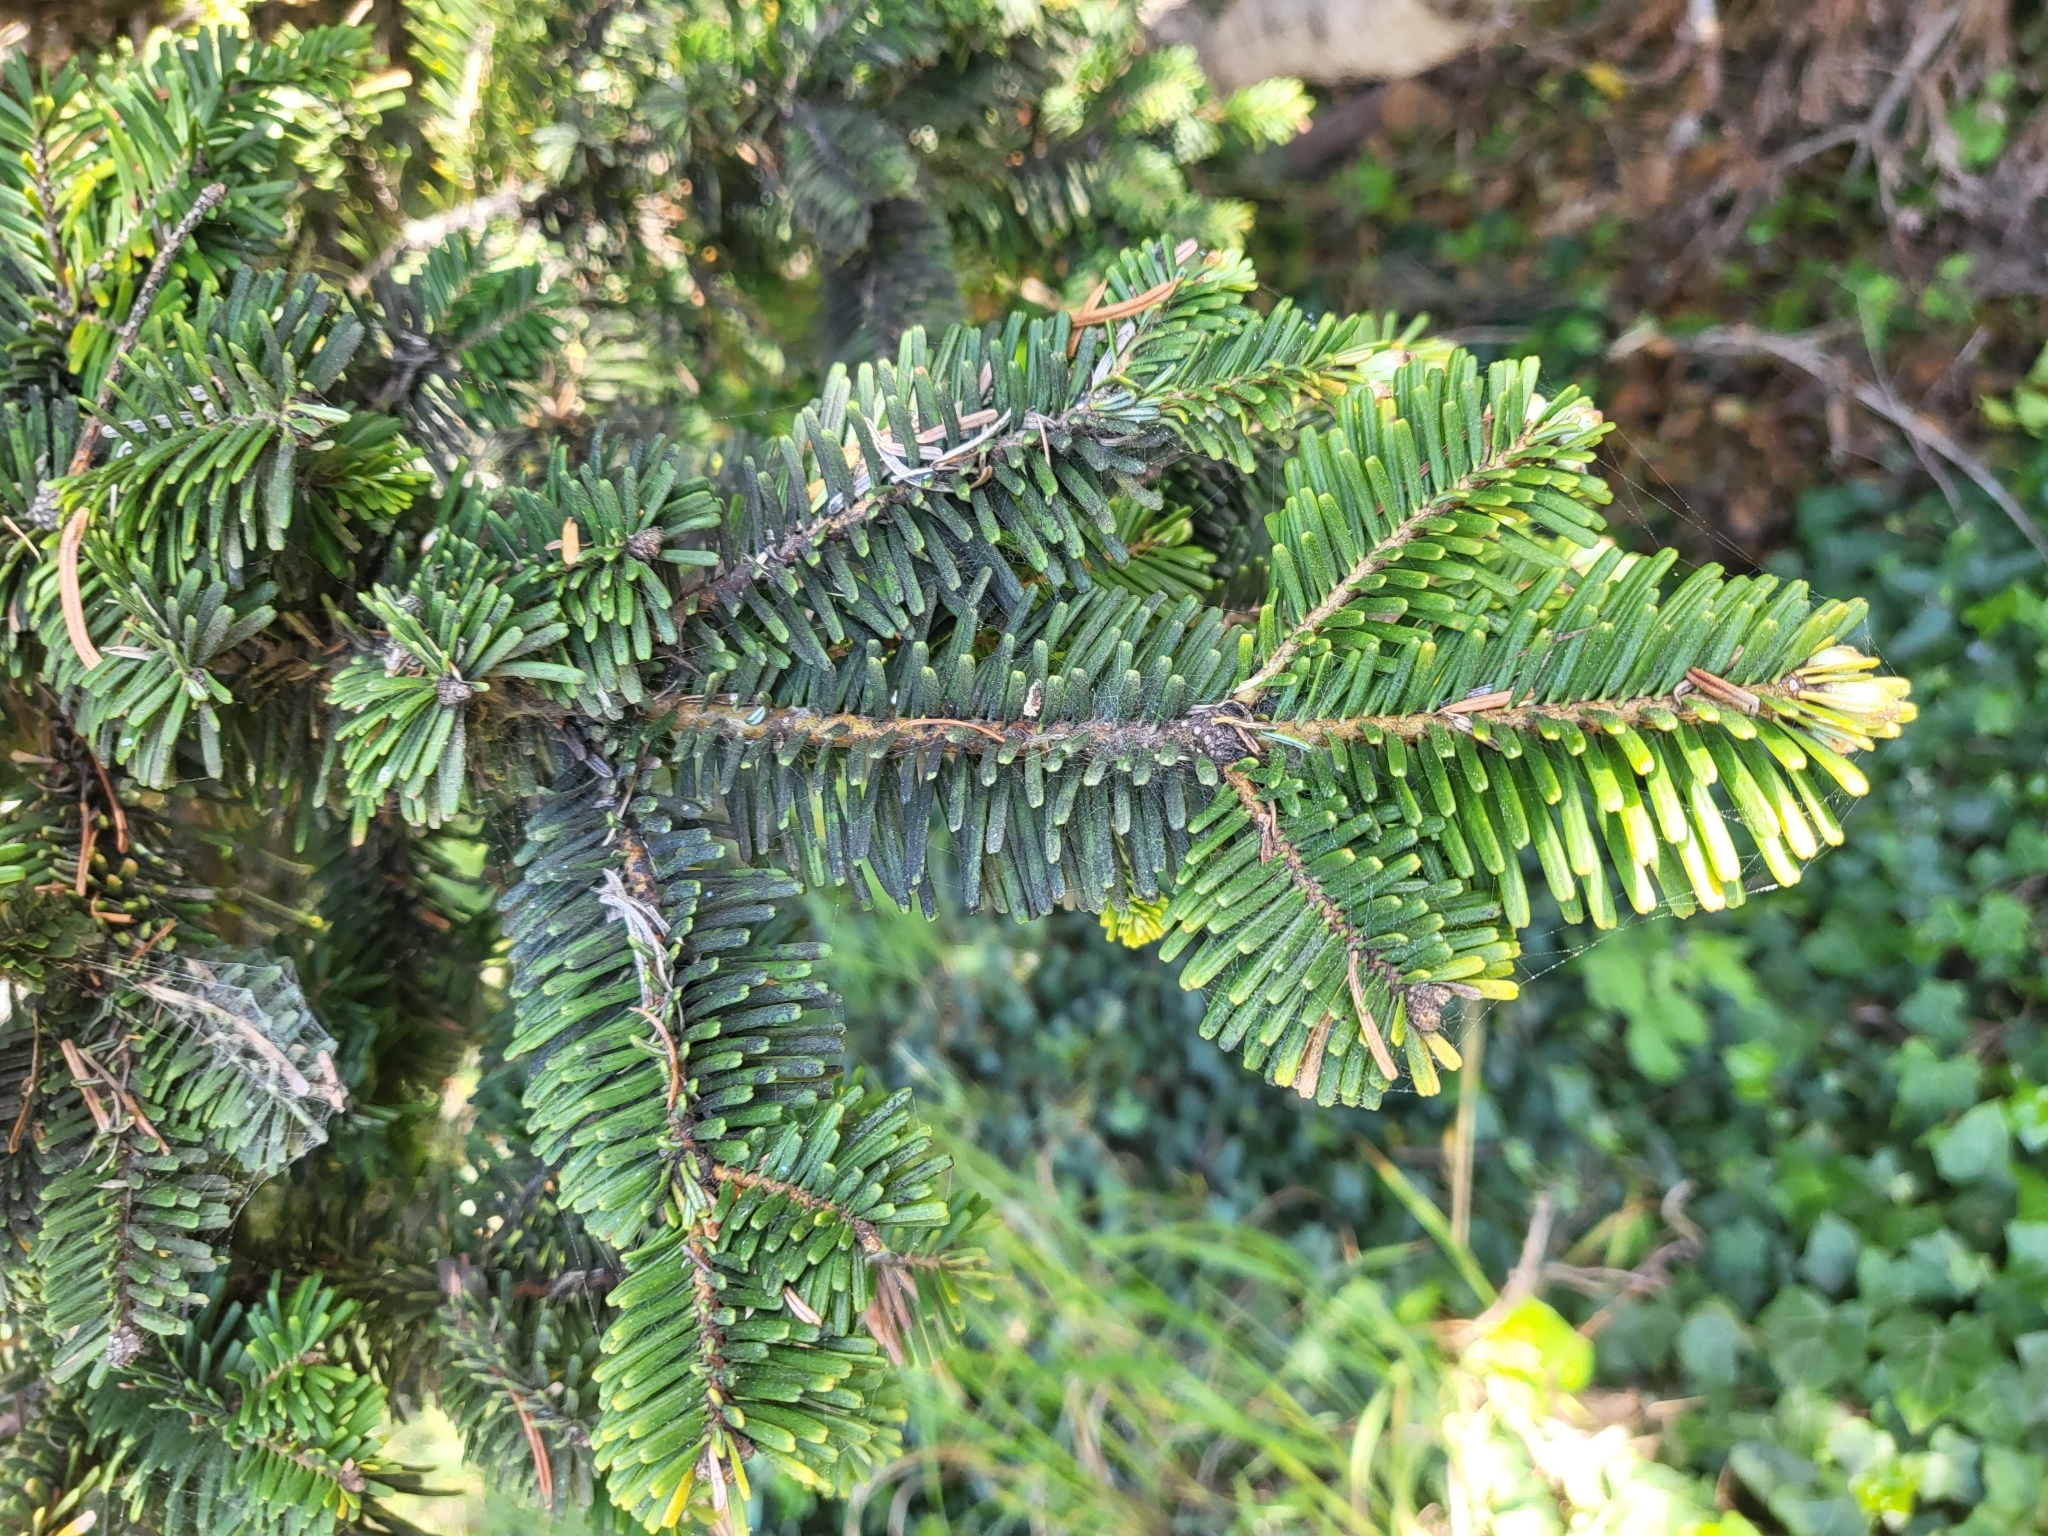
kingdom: Plantae
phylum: Tracheophyta
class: Pinopsida
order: Pinales
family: Pinaceae
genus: Abies
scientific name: Abies grandis
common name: Giant fir
